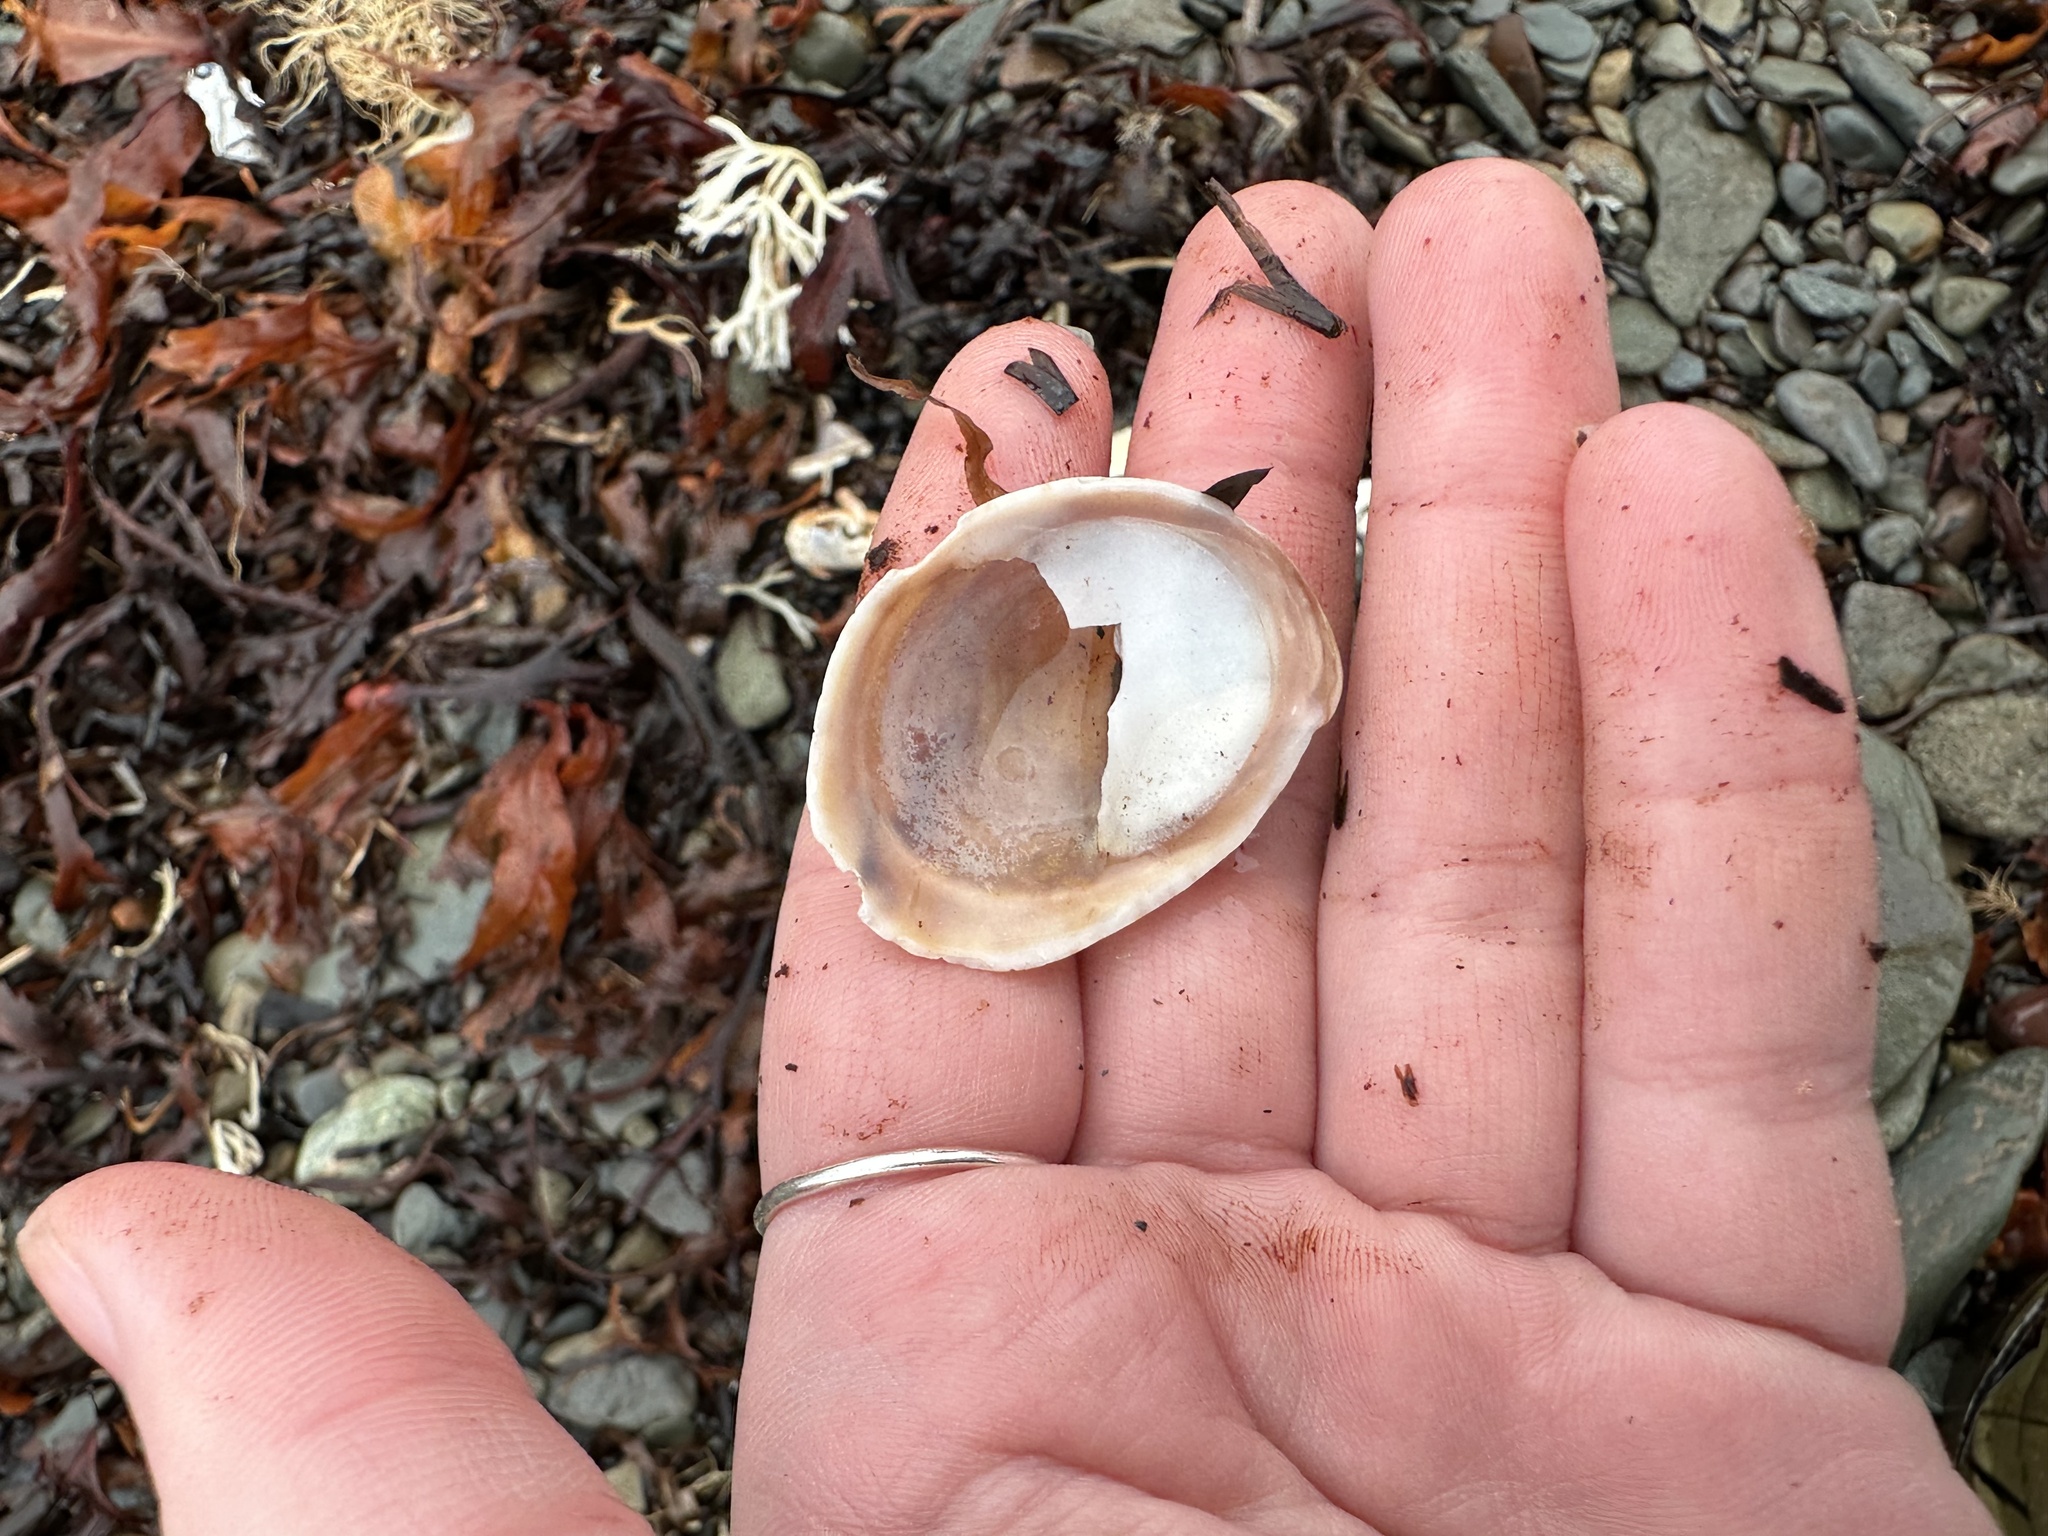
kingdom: Animalia
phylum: Mollusca
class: Gastropoda
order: Littorinimorpha
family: Calyptraeidae
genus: Crepidula
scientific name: Crepidula fornicata
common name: Slipper limpet
